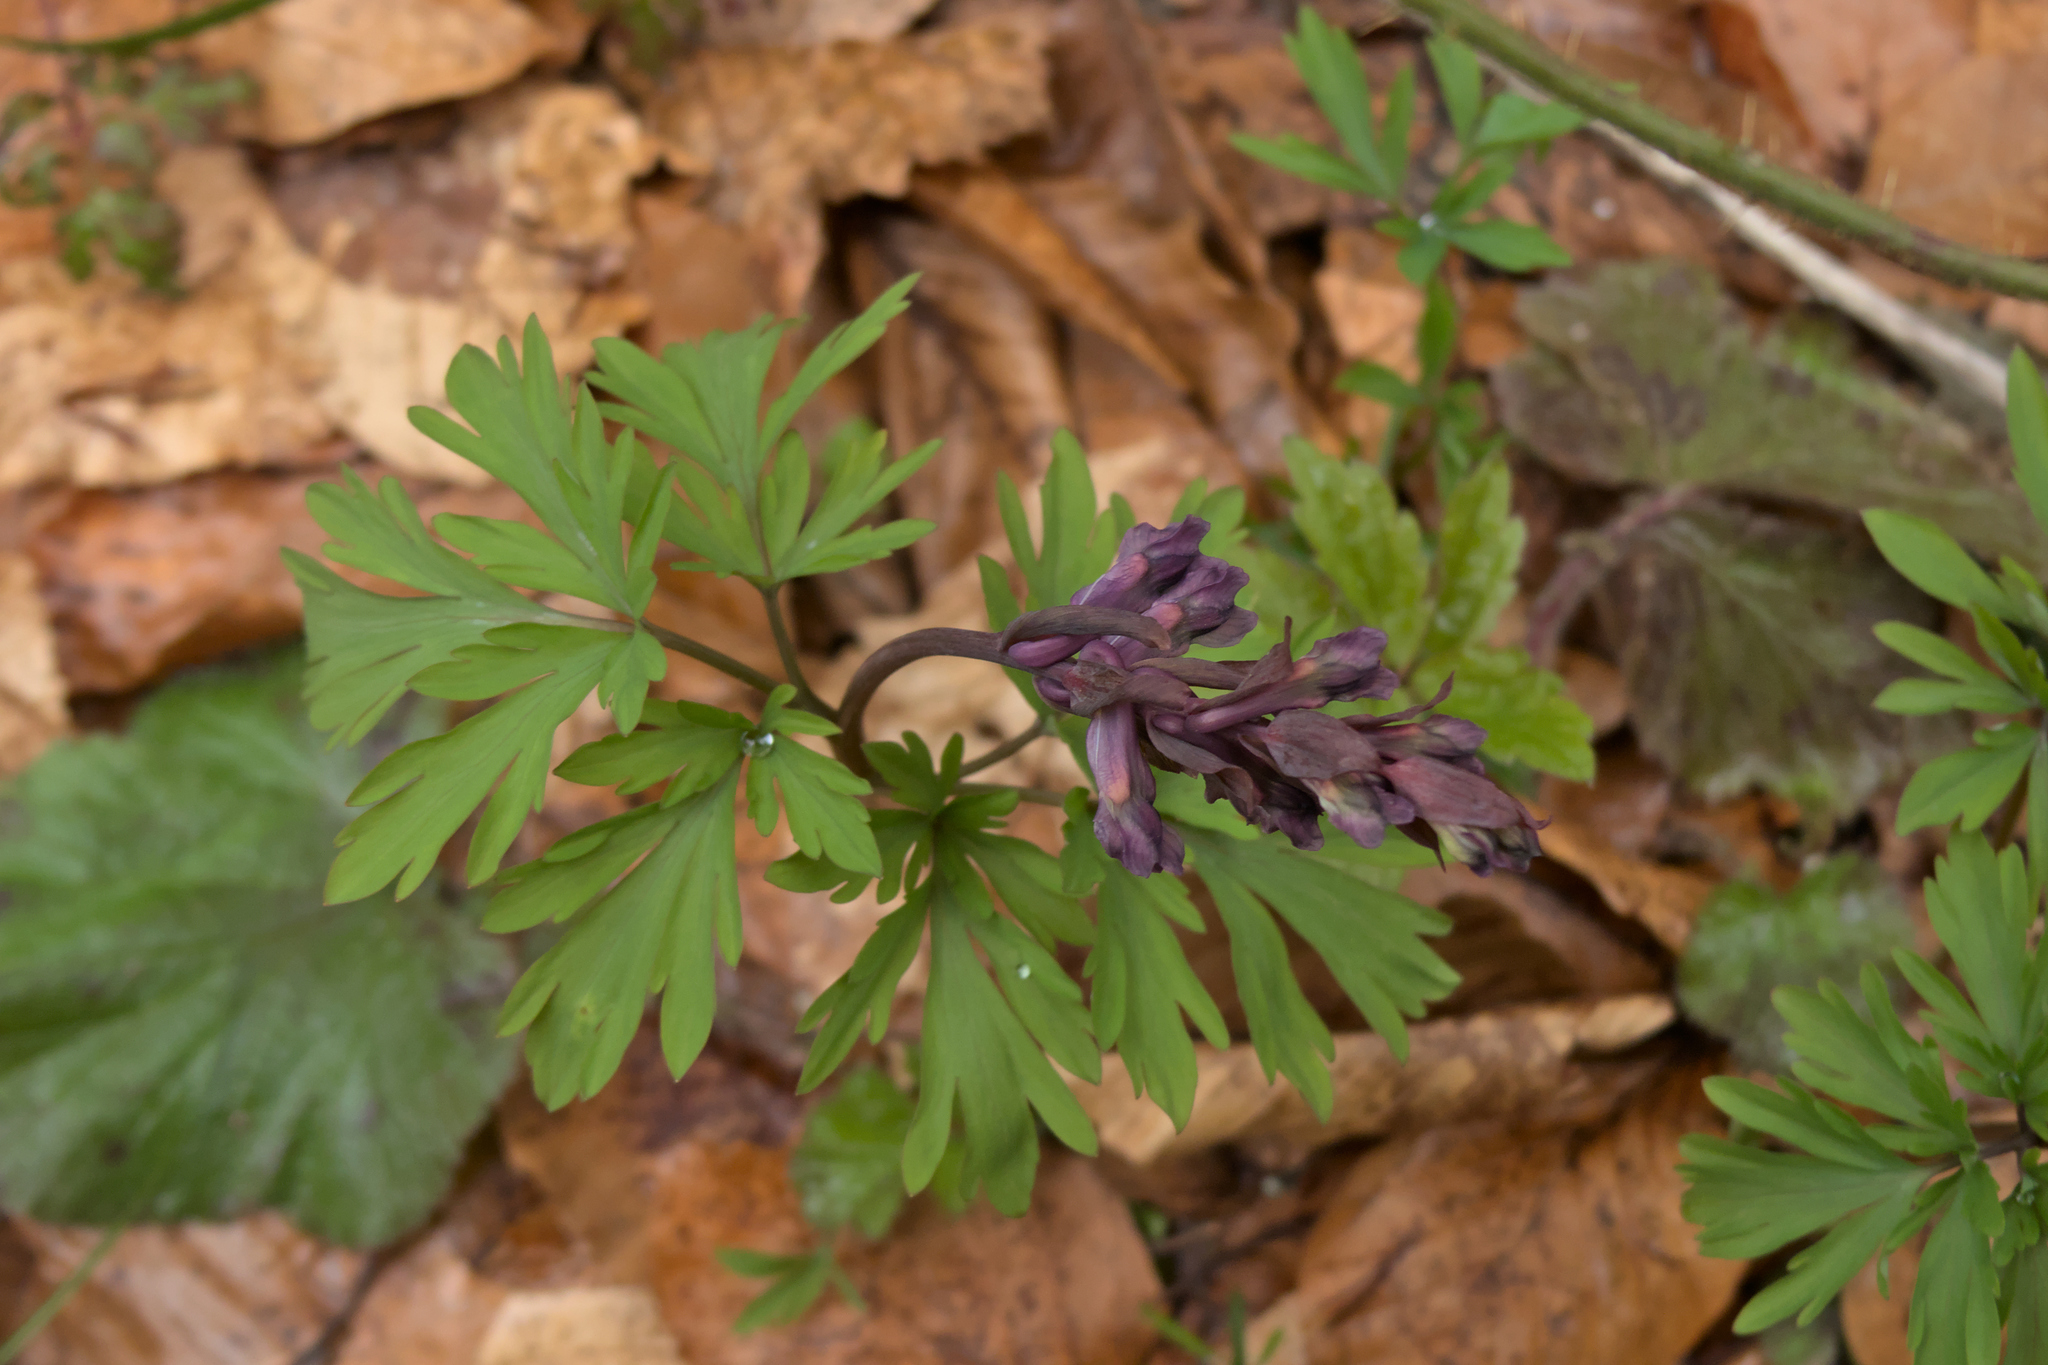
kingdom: Plantae
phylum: Tracheophyta
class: Magnoliopsida
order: Ranunculales
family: Papaveraceae
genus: Corydalis
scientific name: Corydalis cava
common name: Hollowroot
